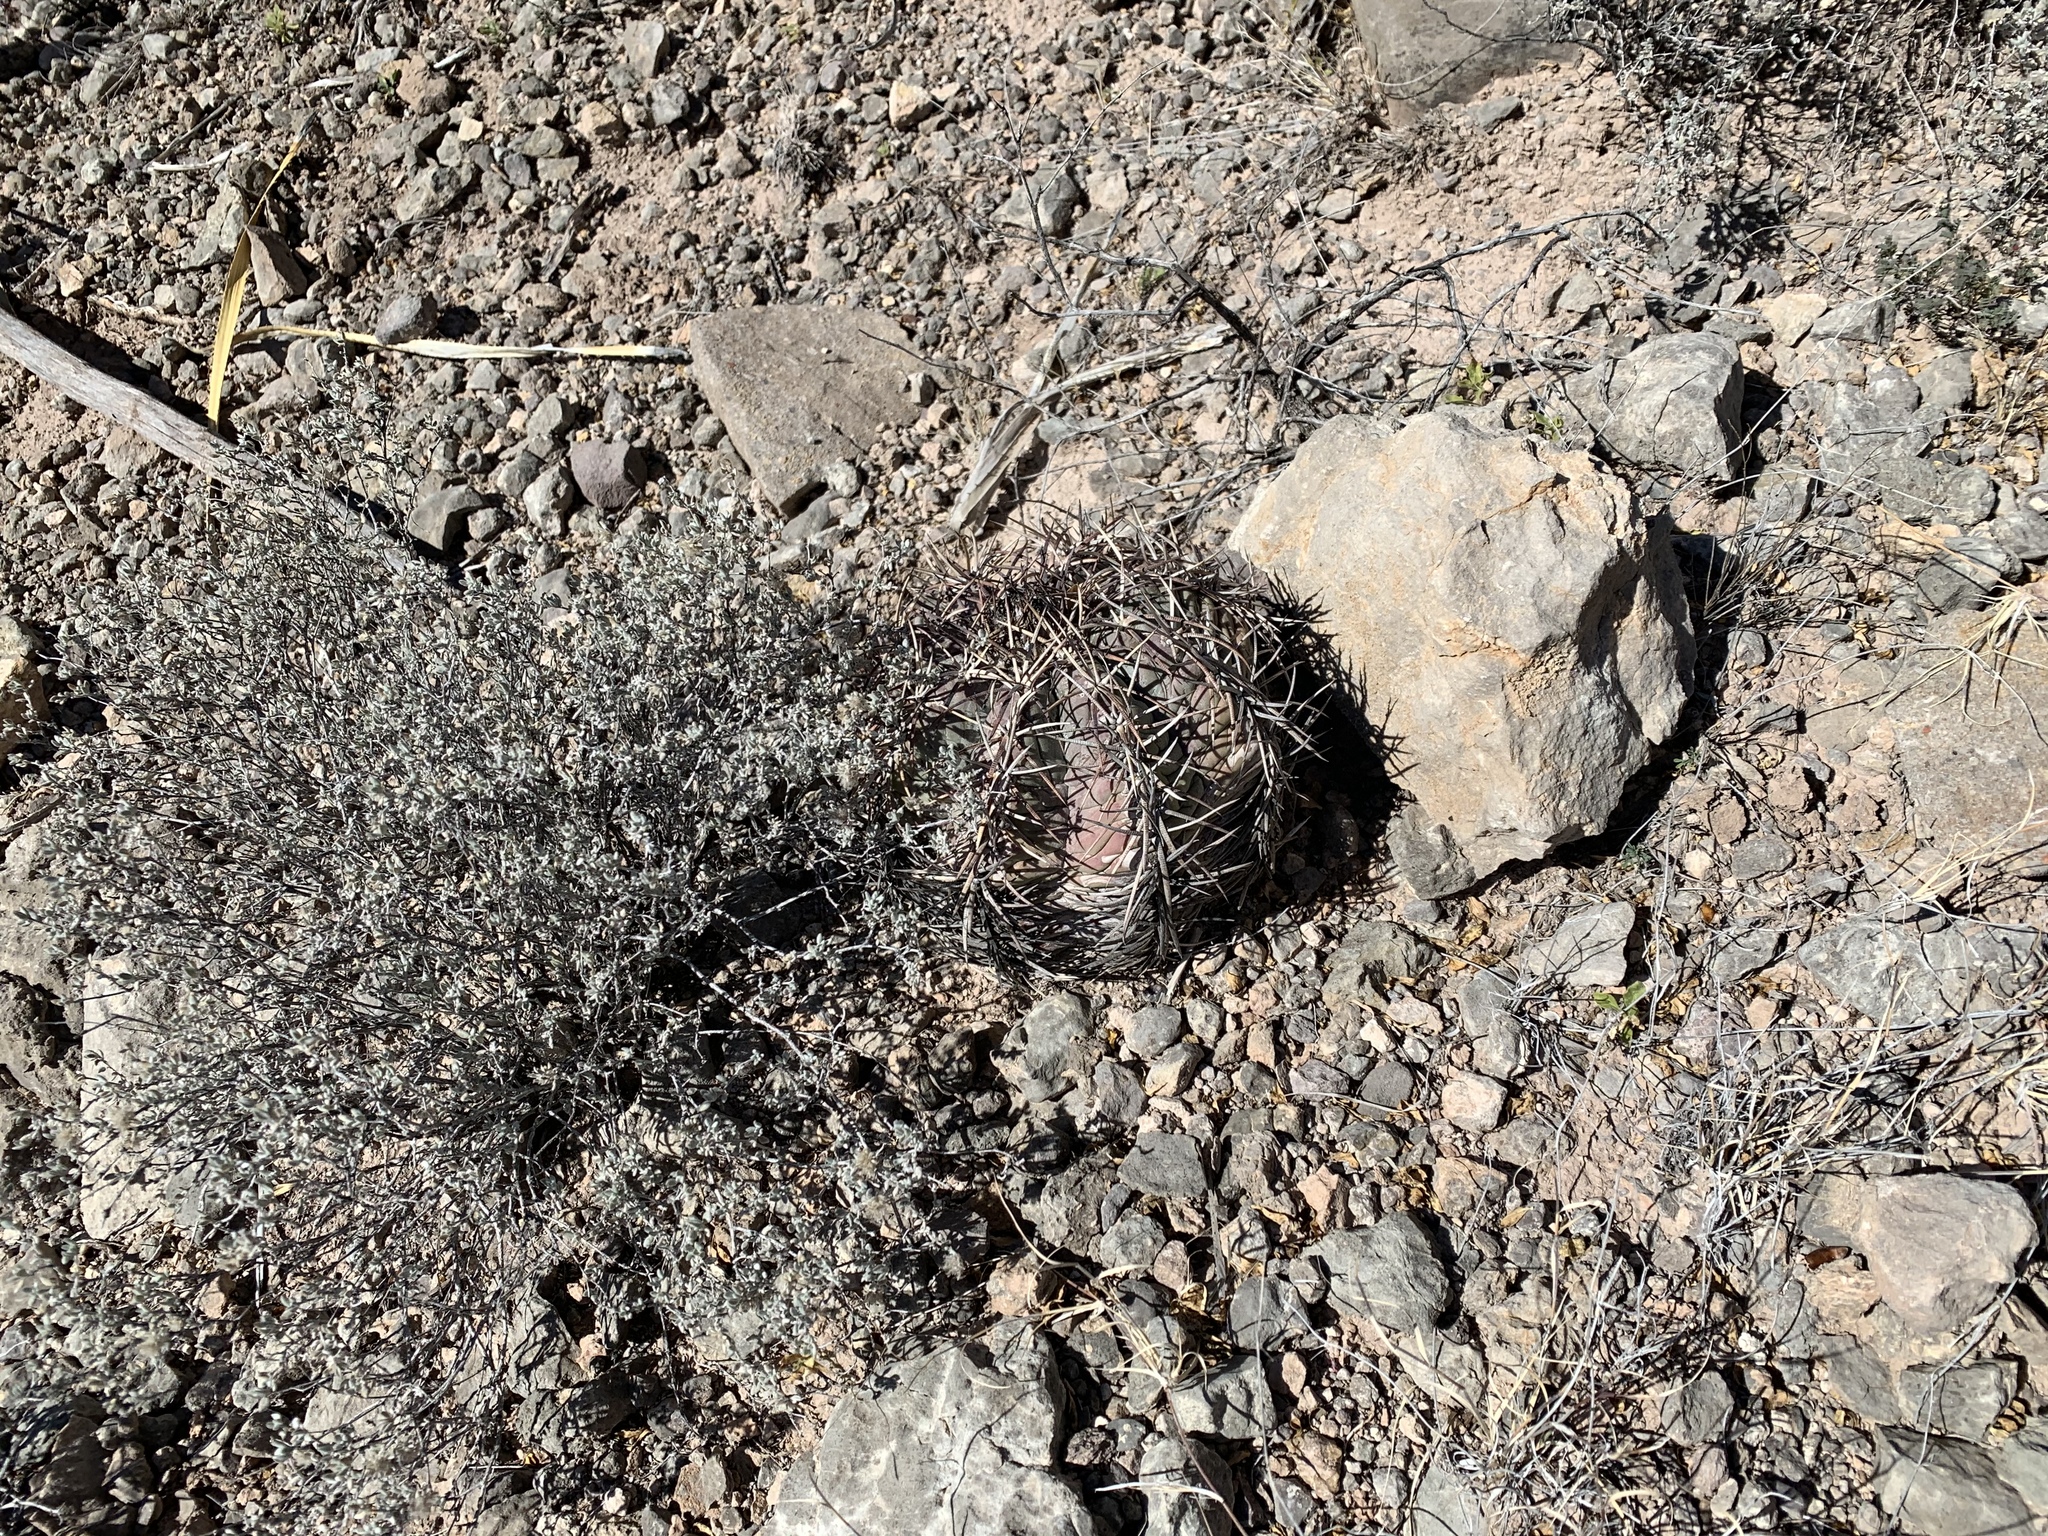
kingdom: Plantae
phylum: Tracheophyta
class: Magnoliopsida
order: Caryophyllales
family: Cactaceae
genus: Echinocactus
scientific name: Echinocactus horizonthalonius
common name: Devilshead
